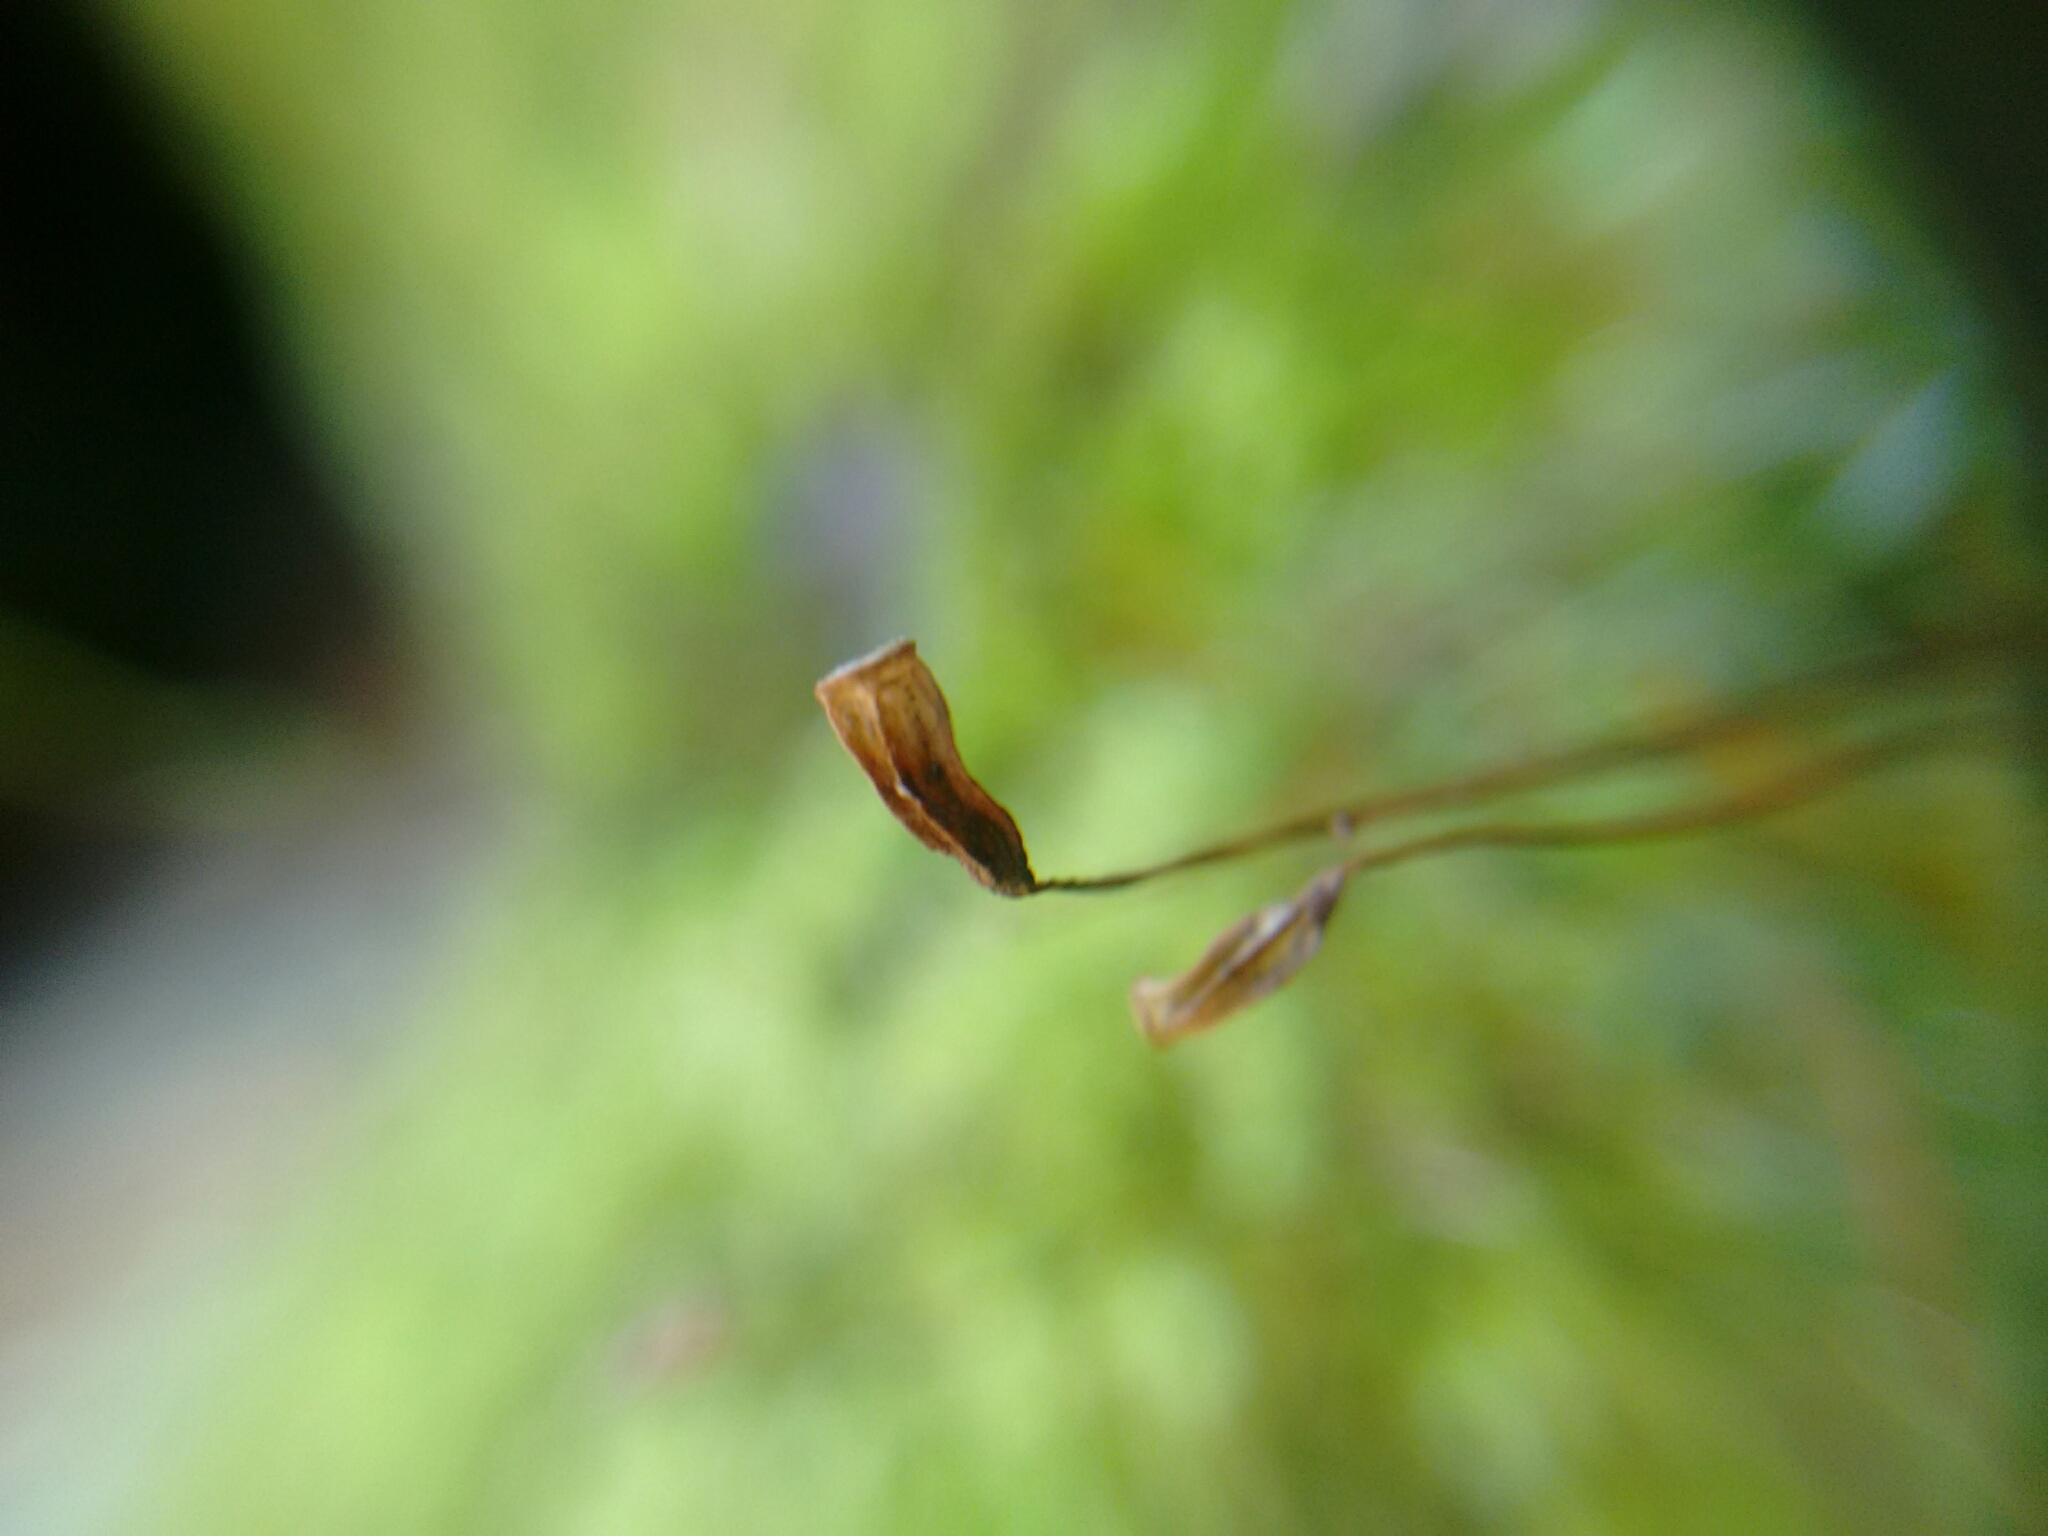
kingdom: Plantae
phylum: Bryophyta
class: Polytrichopsida
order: Polytrichales
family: Polytrichaceae
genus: Polytrichum
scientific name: Polytrichum ohioense
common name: Ohio polytrichum moss
